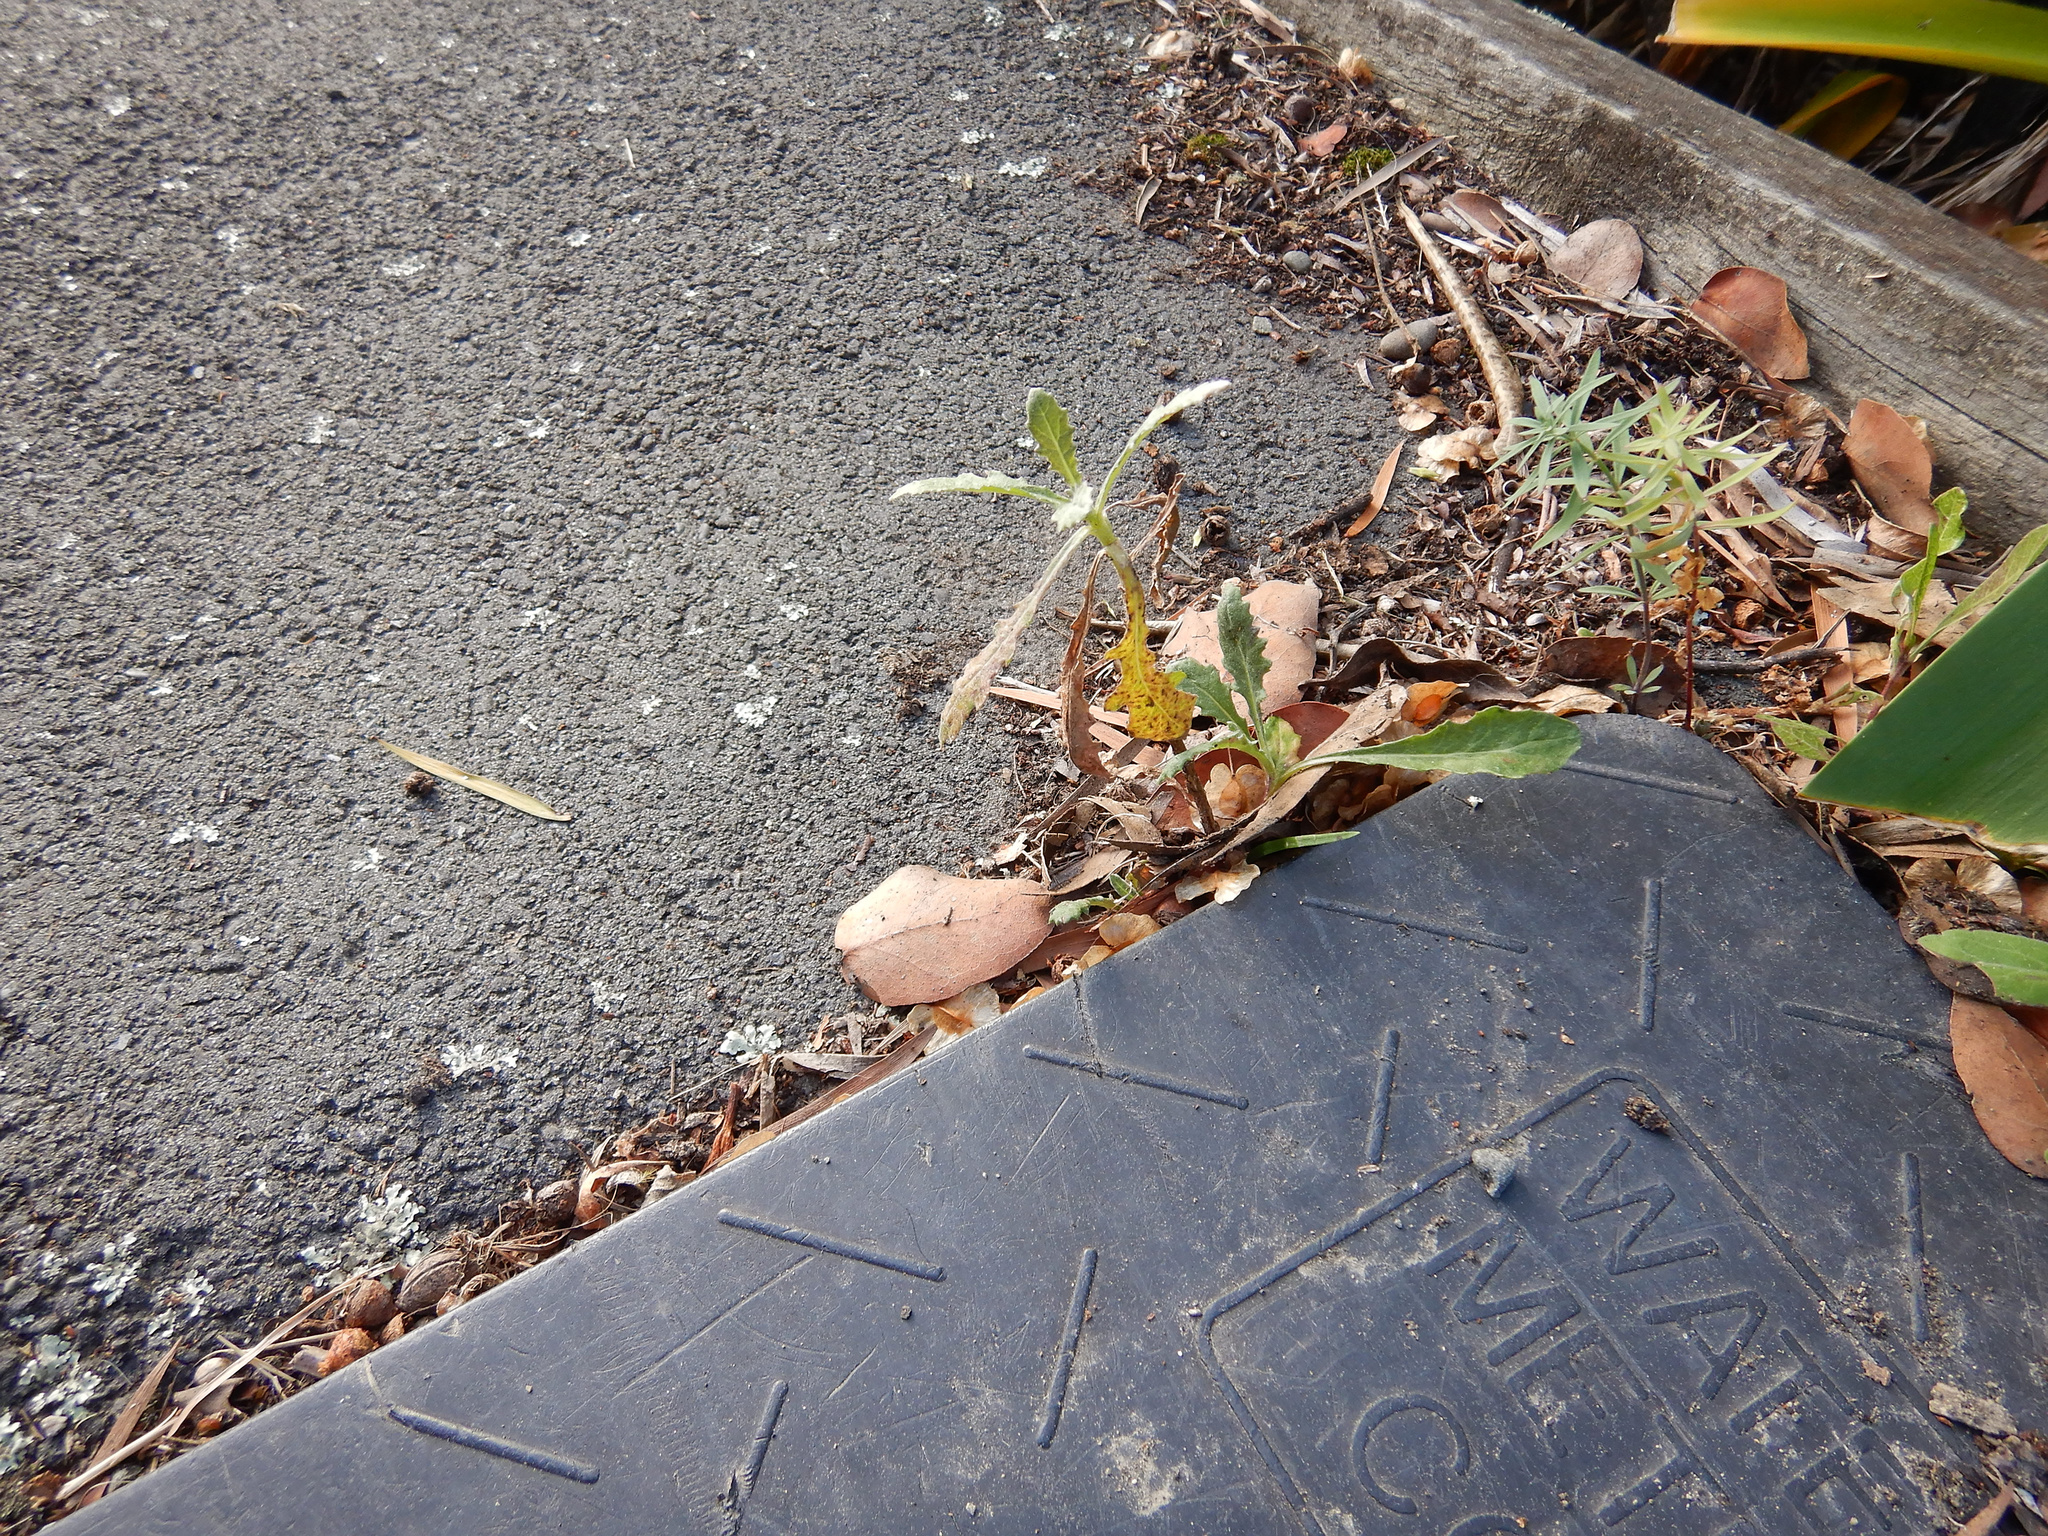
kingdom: Plantae
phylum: Tracheophyta
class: Magnoliopsida
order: Asterales
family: Asteraceae
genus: Senecio
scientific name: Senecio glomeratus
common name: Cutleaf burnweed
